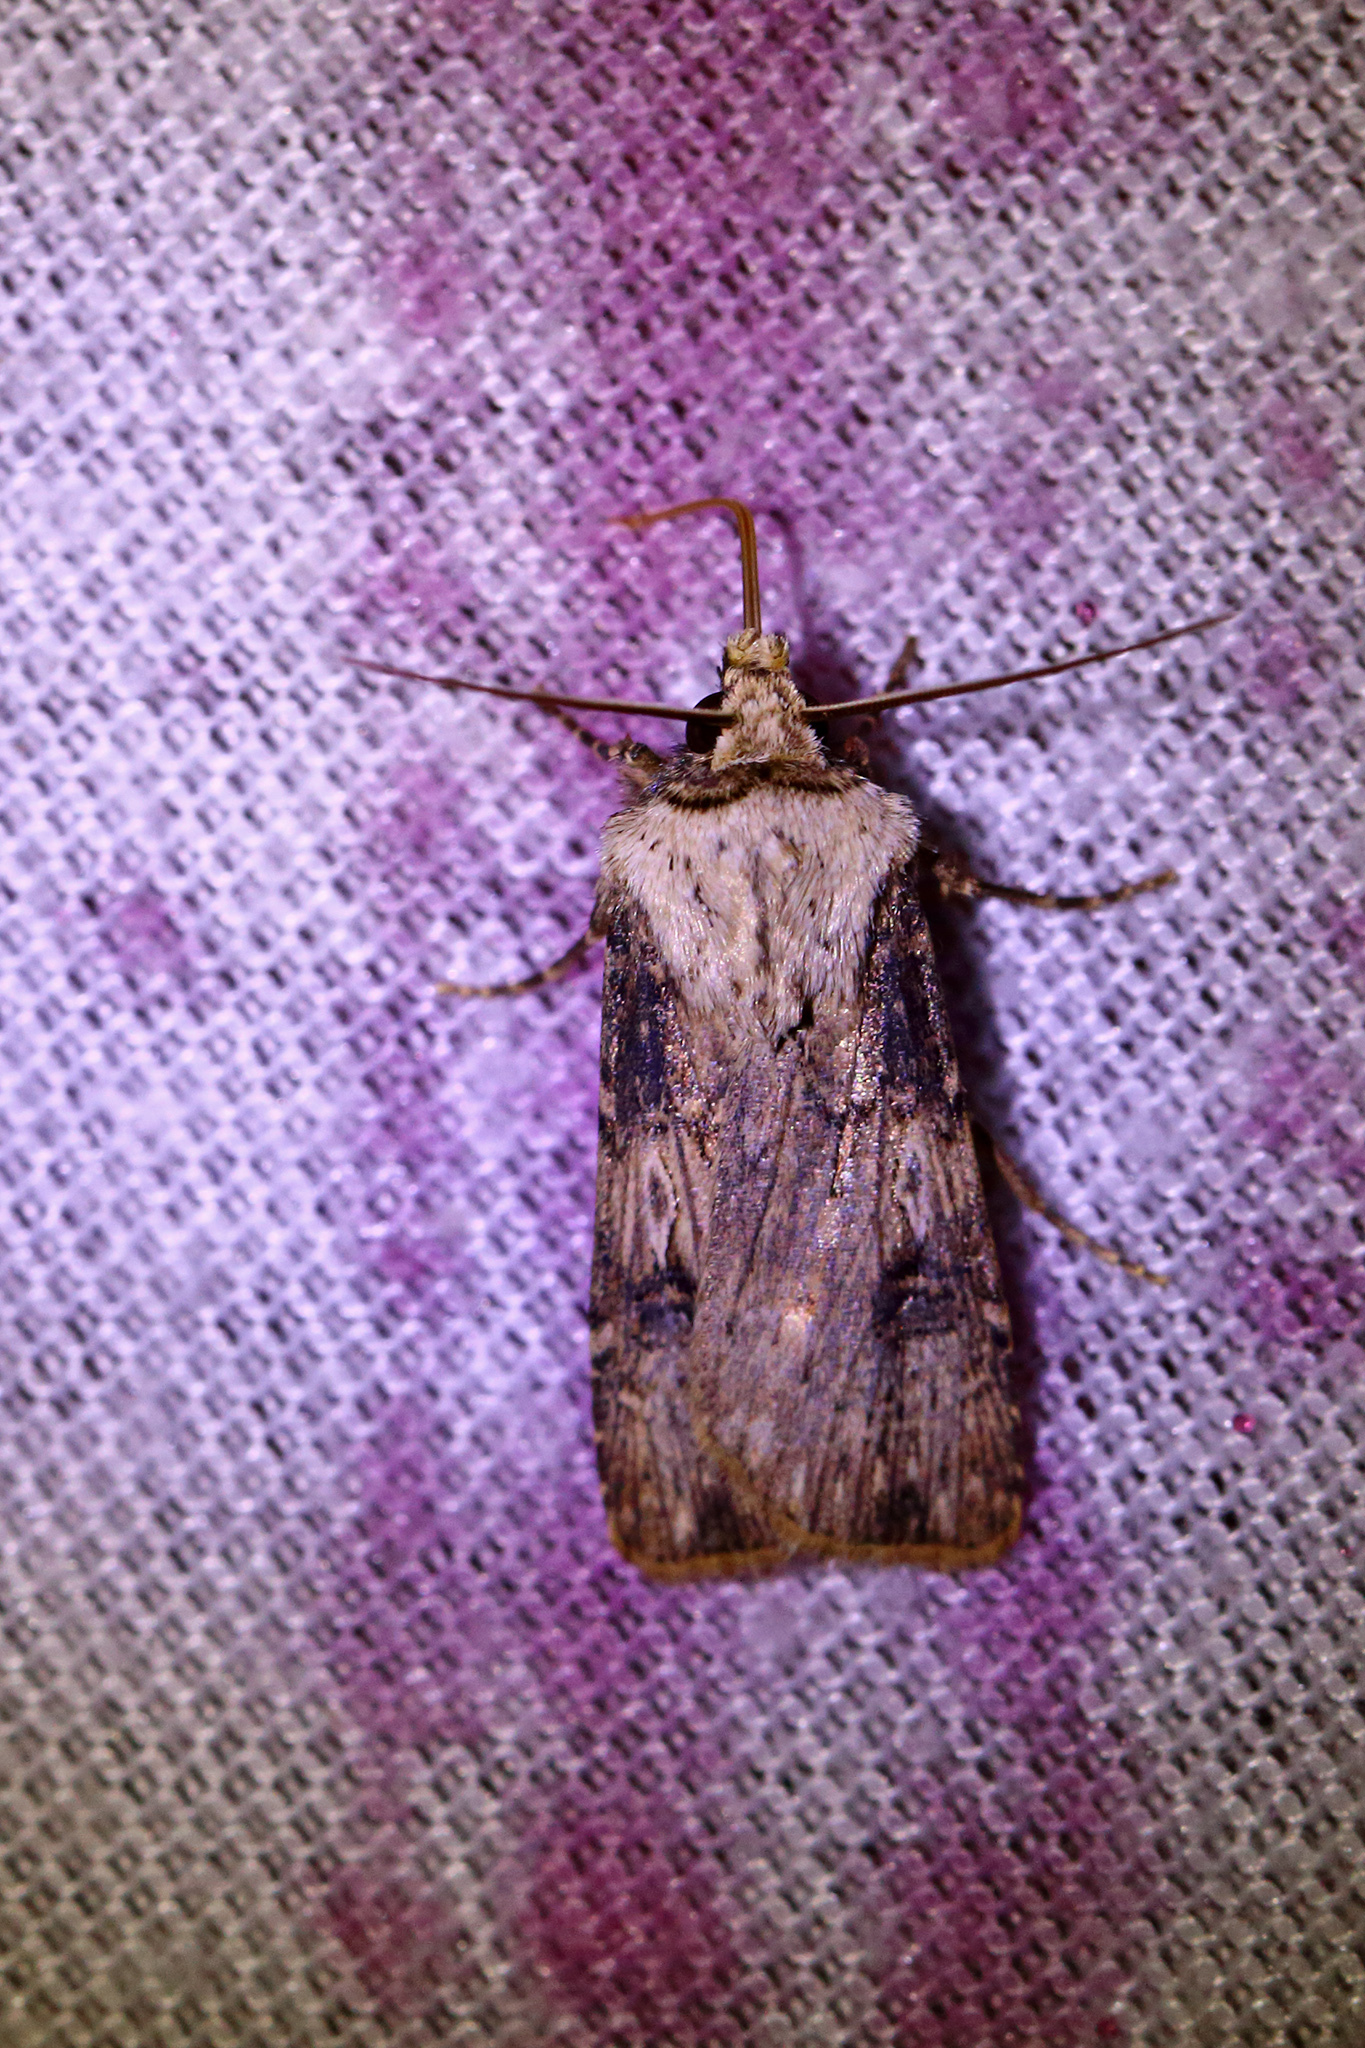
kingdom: Animalia
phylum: Arthropoda
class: Insecta
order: Lepidoptera
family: Noctuidae
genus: Agrotis
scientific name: Agrotis puta
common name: Shuttle-shaped dart
